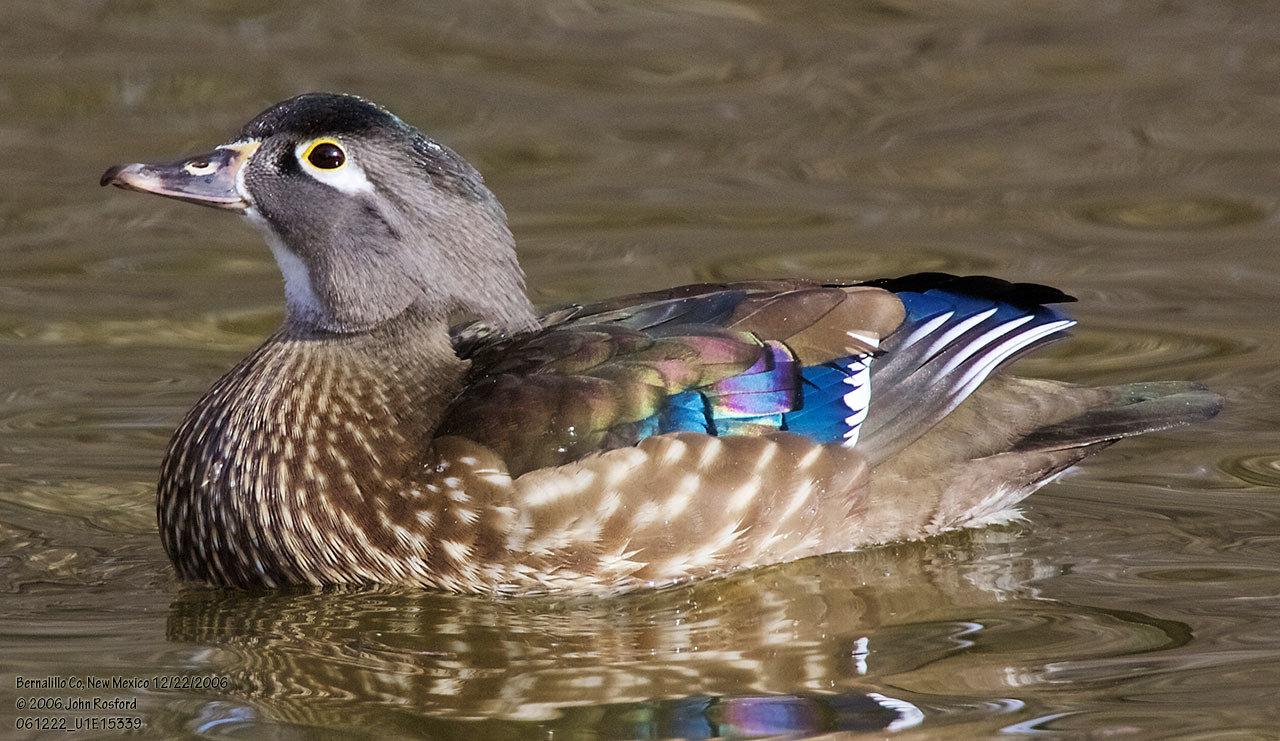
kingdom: Animalia
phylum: Chordata
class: Aves
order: Anseriformes
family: Anatidae
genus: Aix
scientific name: Aix sponsa
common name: Wood duck
